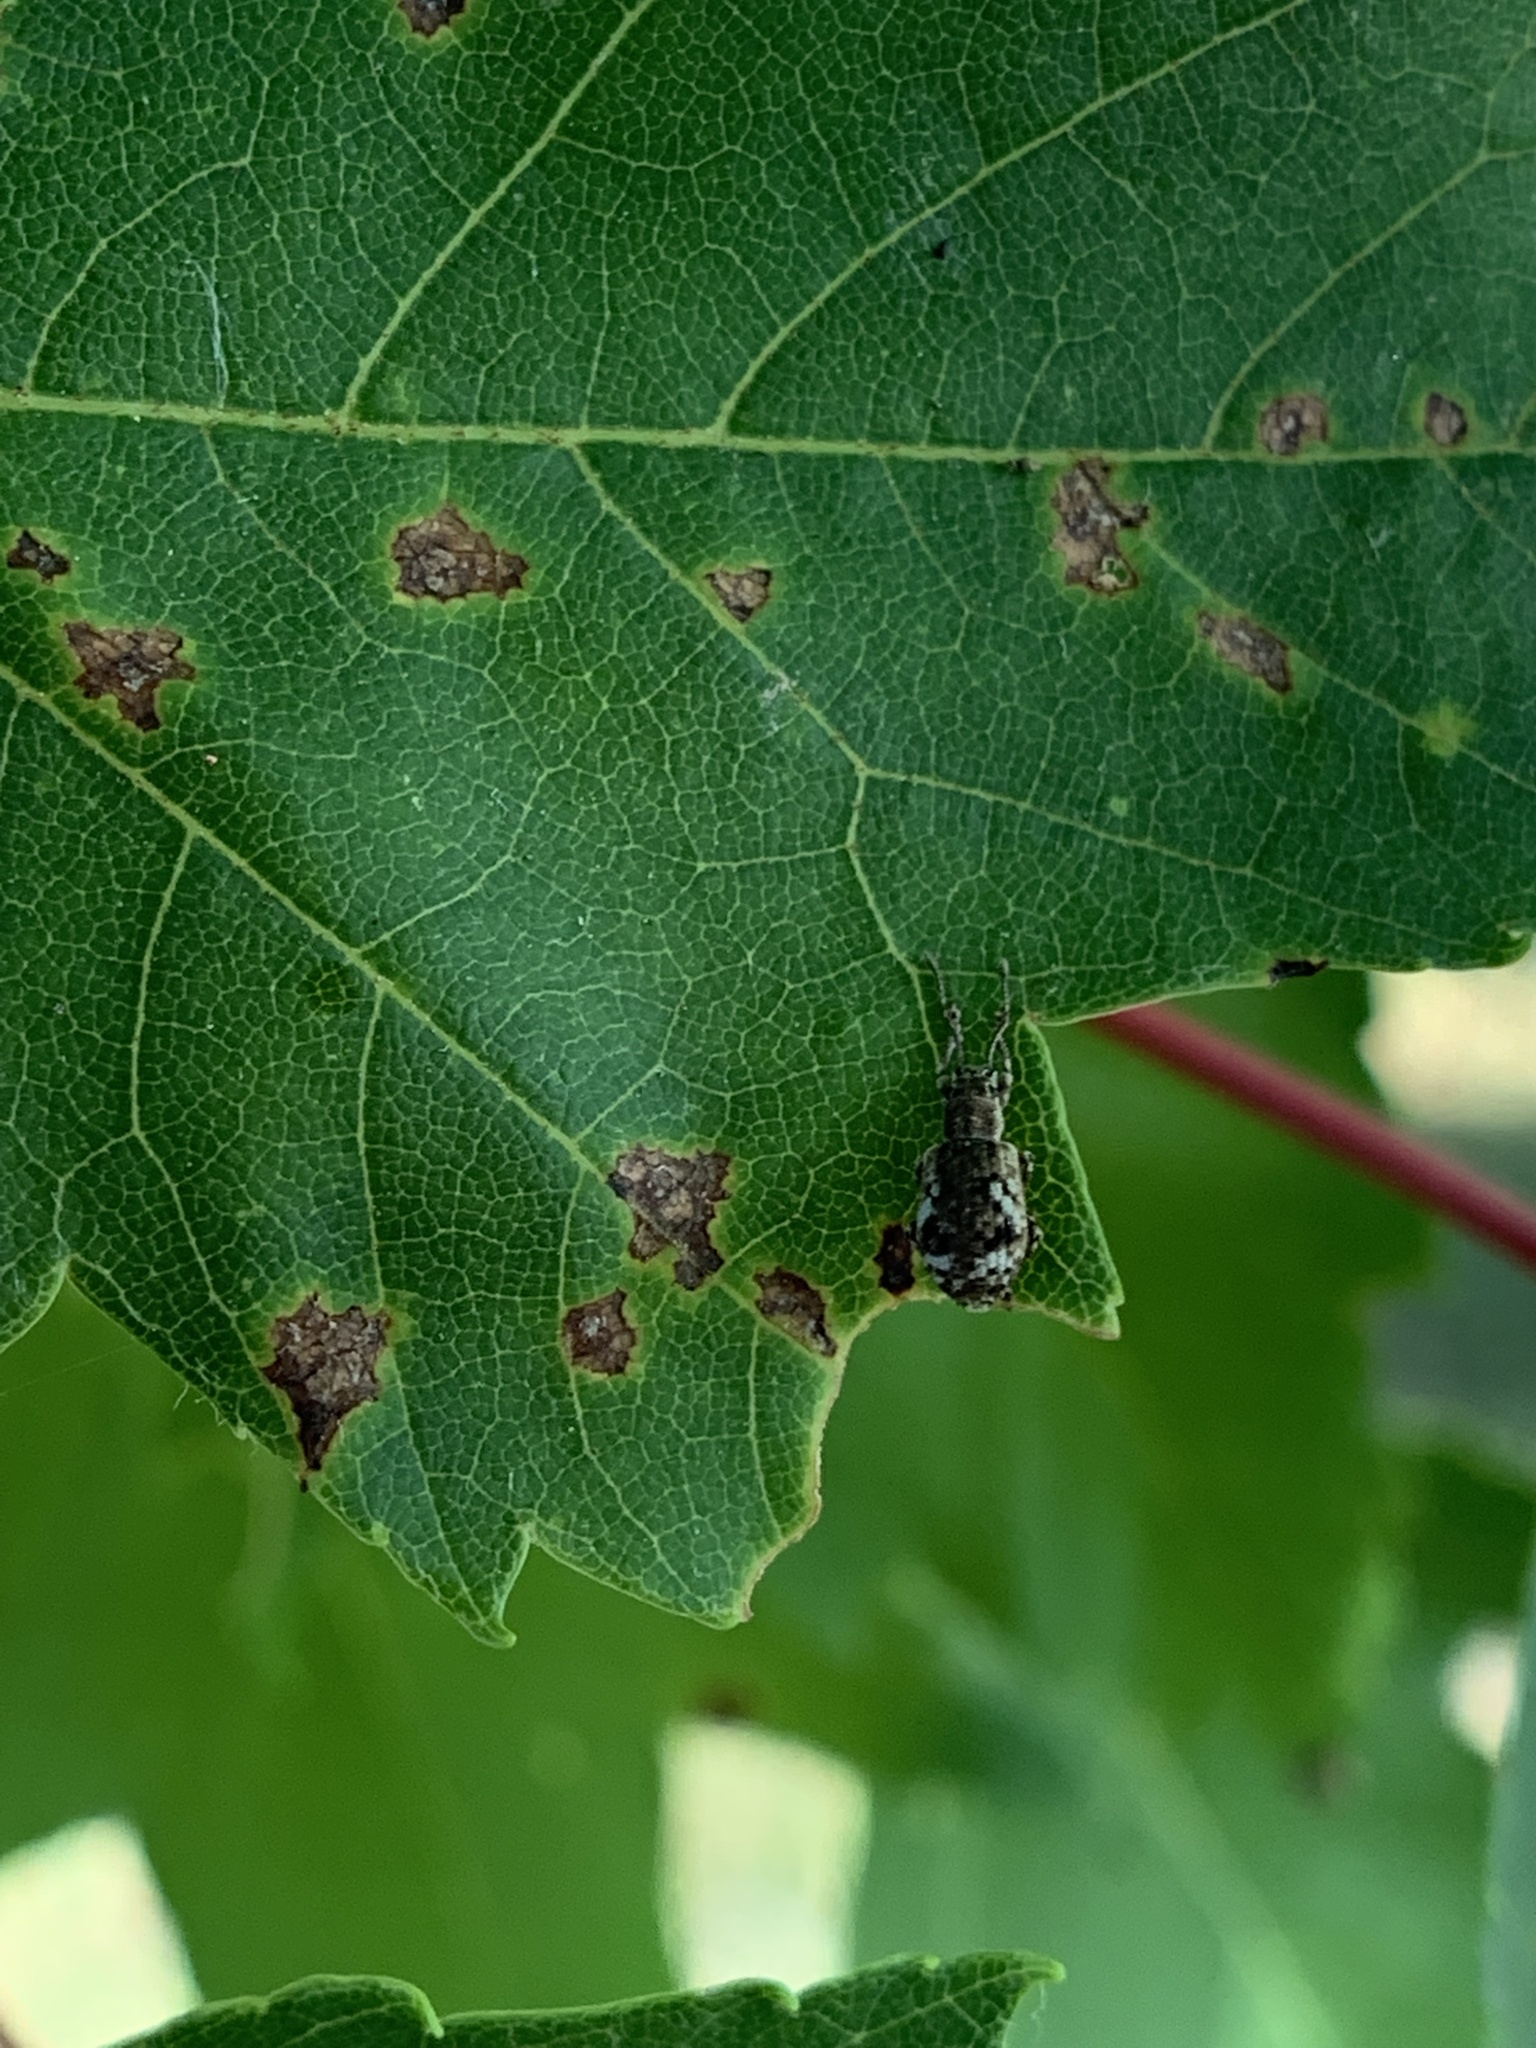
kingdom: Animalia
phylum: Arthropoda
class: Insecta
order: Coleoptera
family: Curculionidae
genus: Pseudoedophrys
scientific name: Pseudoedophrys hilleri
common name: Weevil
